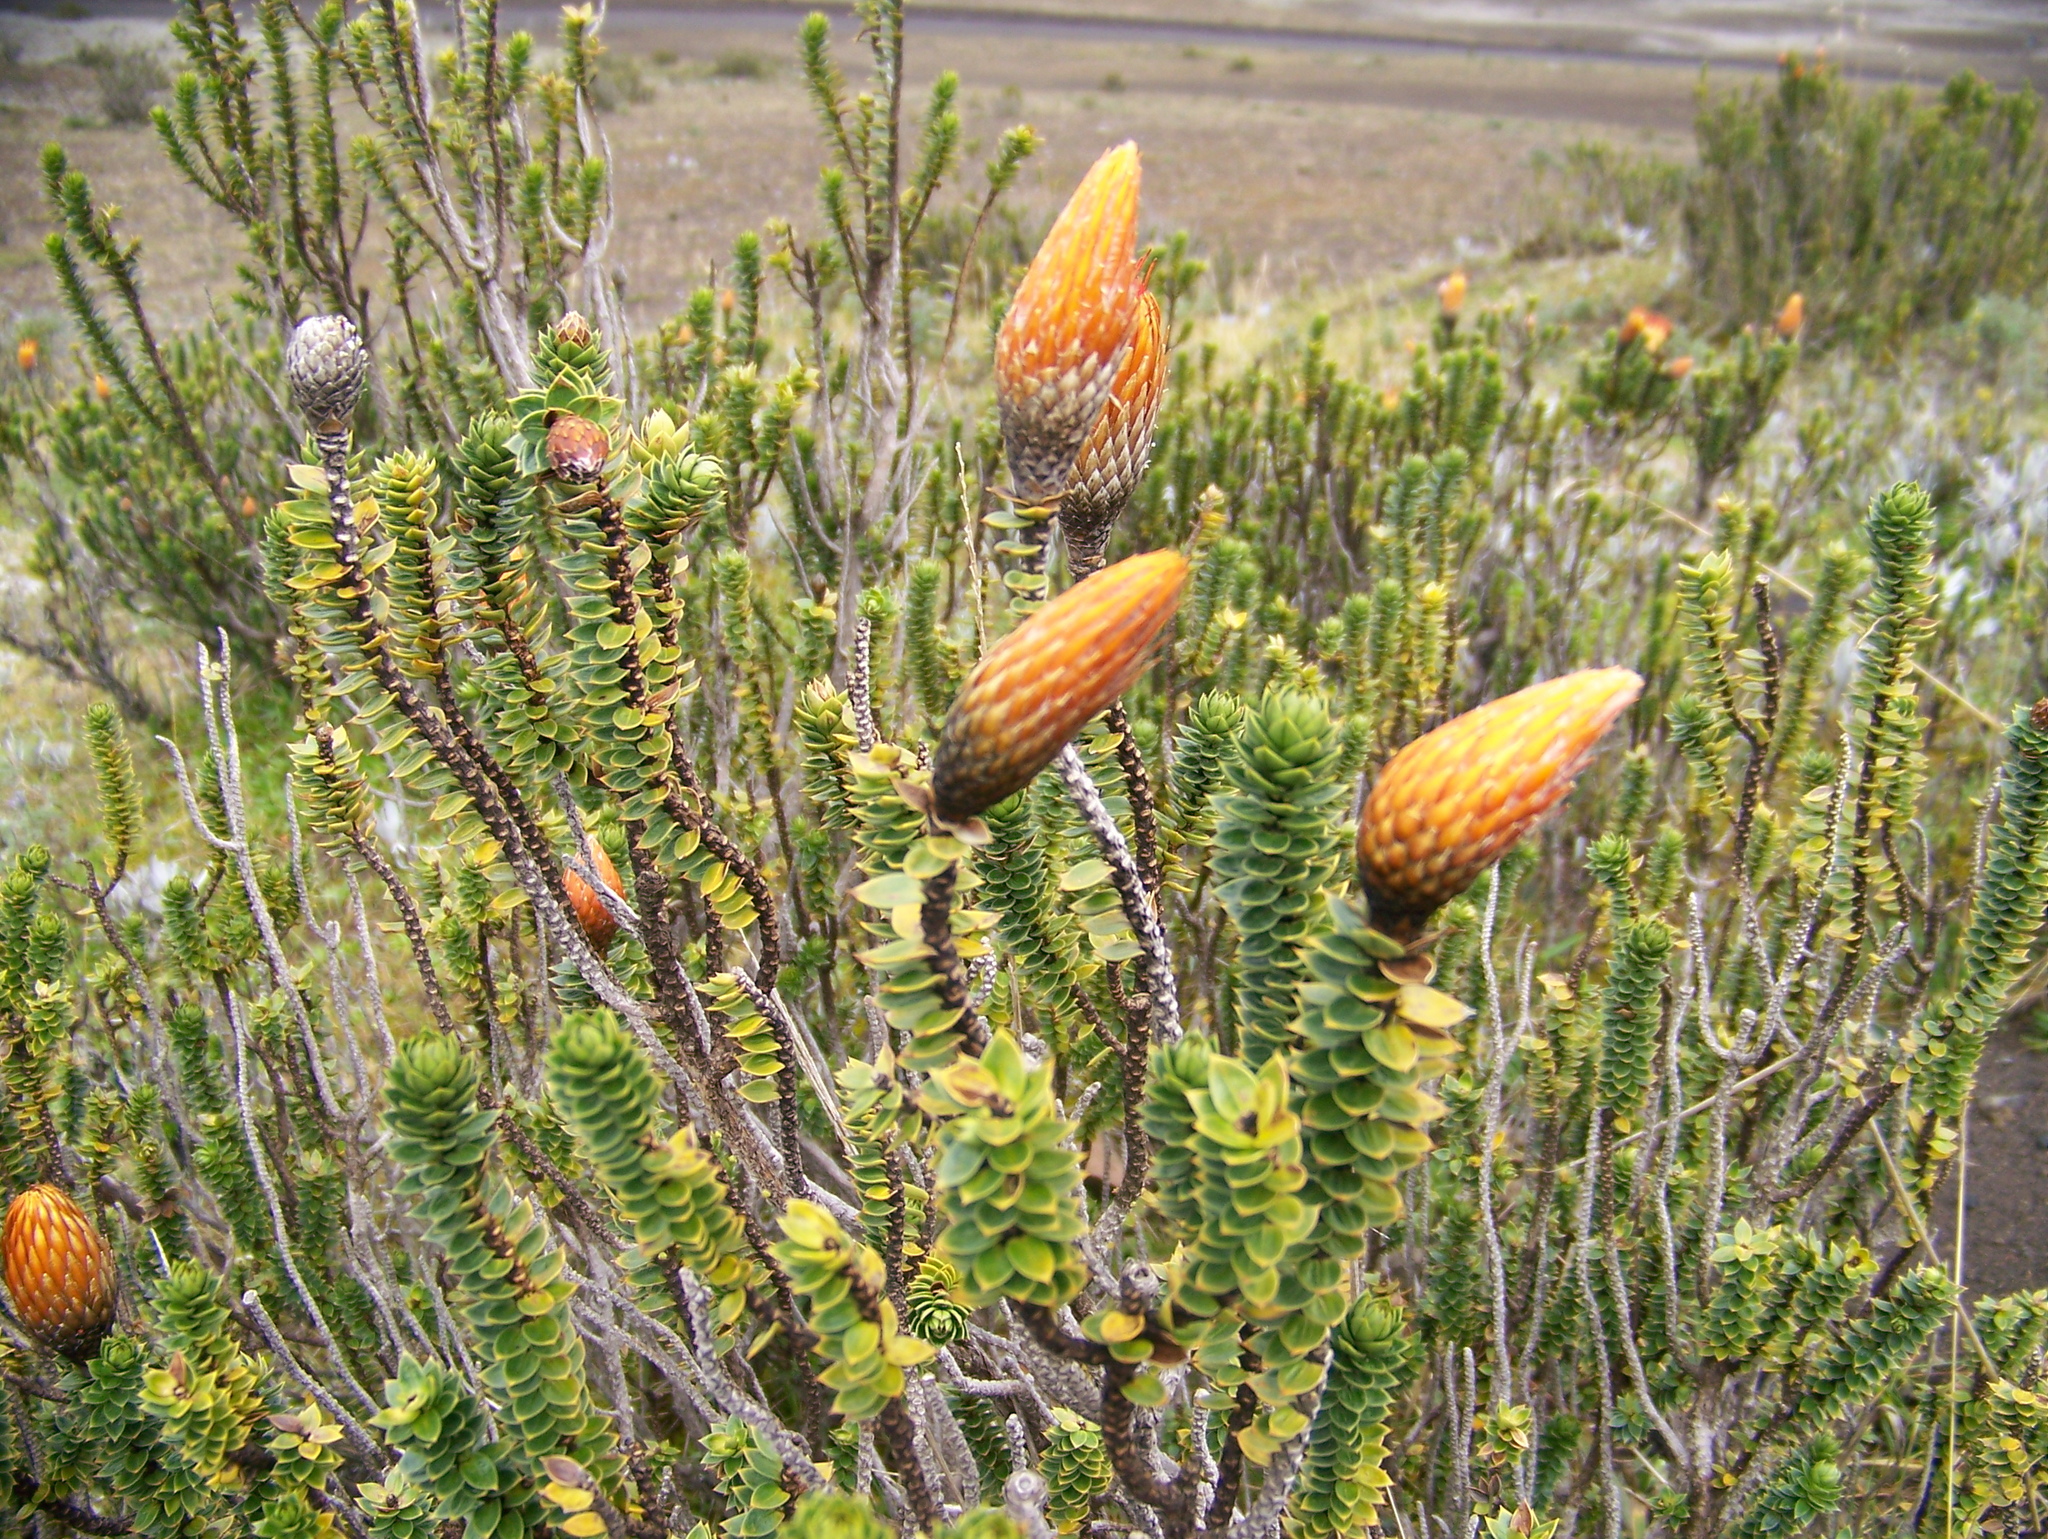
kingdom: Plantae
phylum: Tracheophyta
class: Magnoliopsida
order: Asterales
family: Asteraceae
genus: Chuquiraga
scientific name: Chuquiraga jussieui
